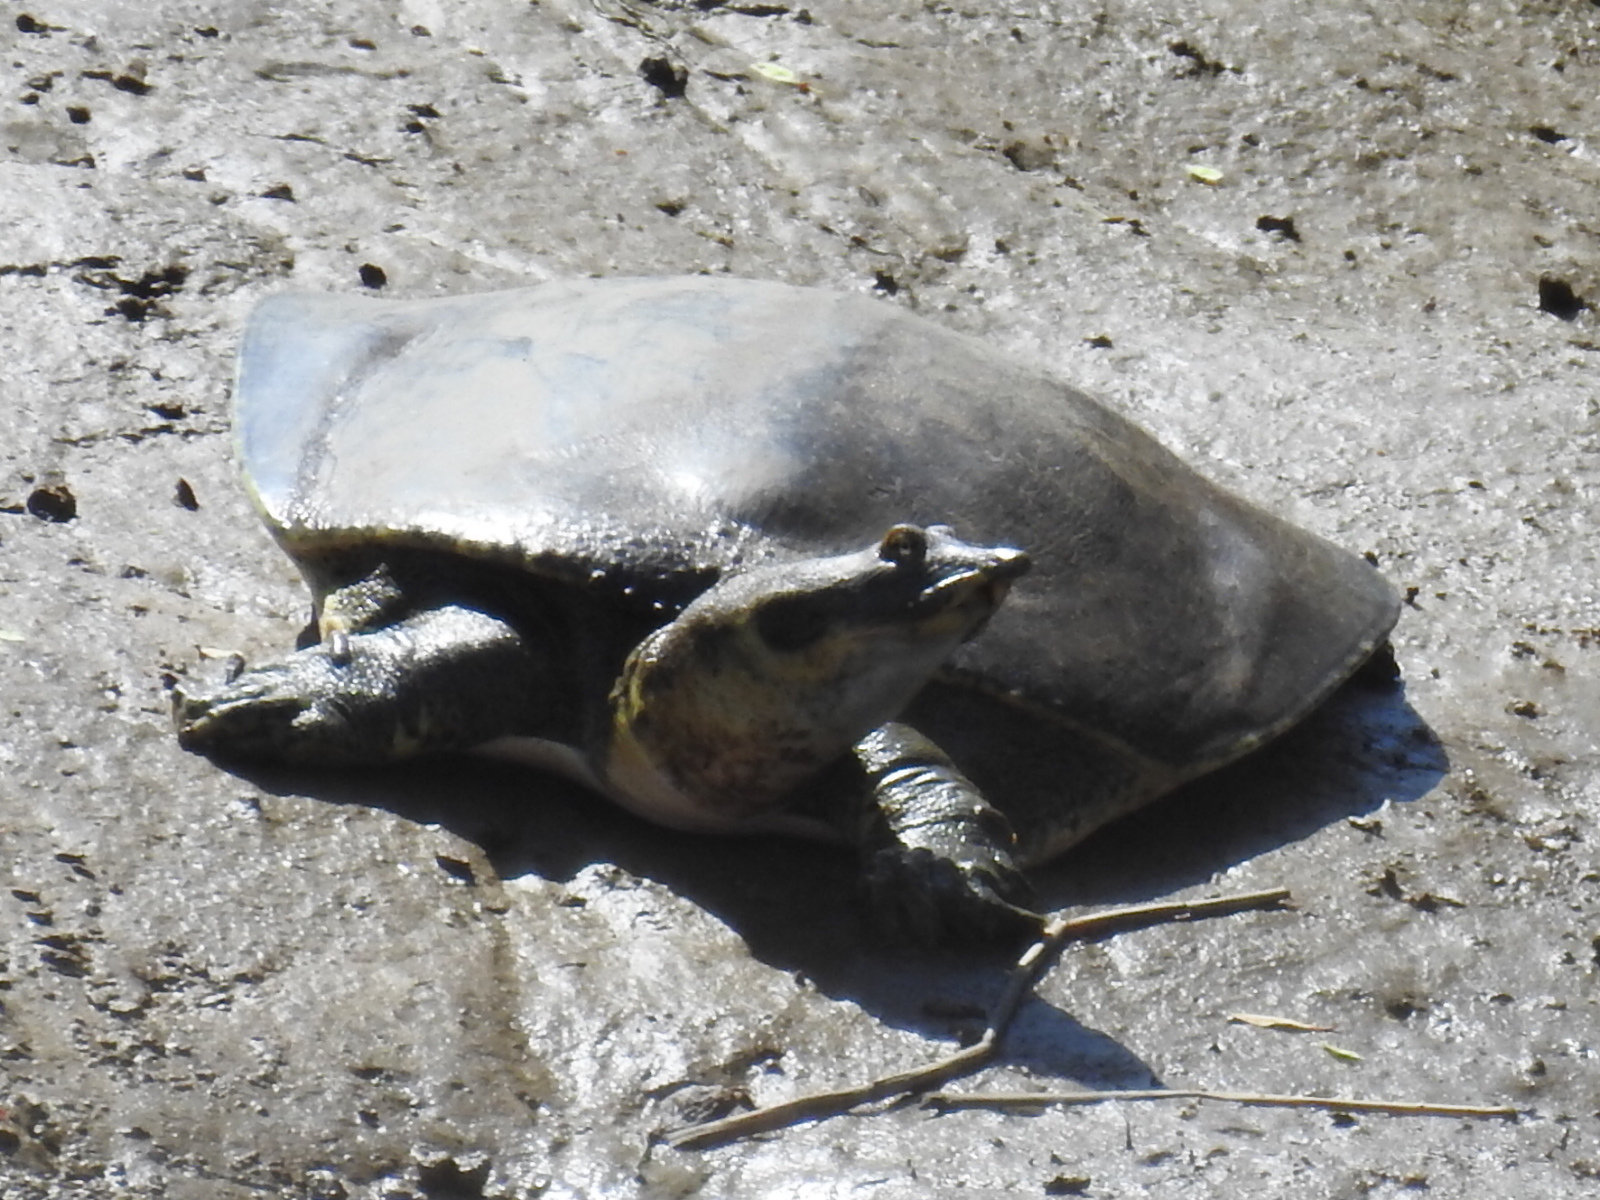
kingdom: Animalia
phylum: Chordata
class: Testudines
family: Trionychidae
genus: Apalone
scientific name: Apalone spinifera
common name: Spiny softshell turtle
